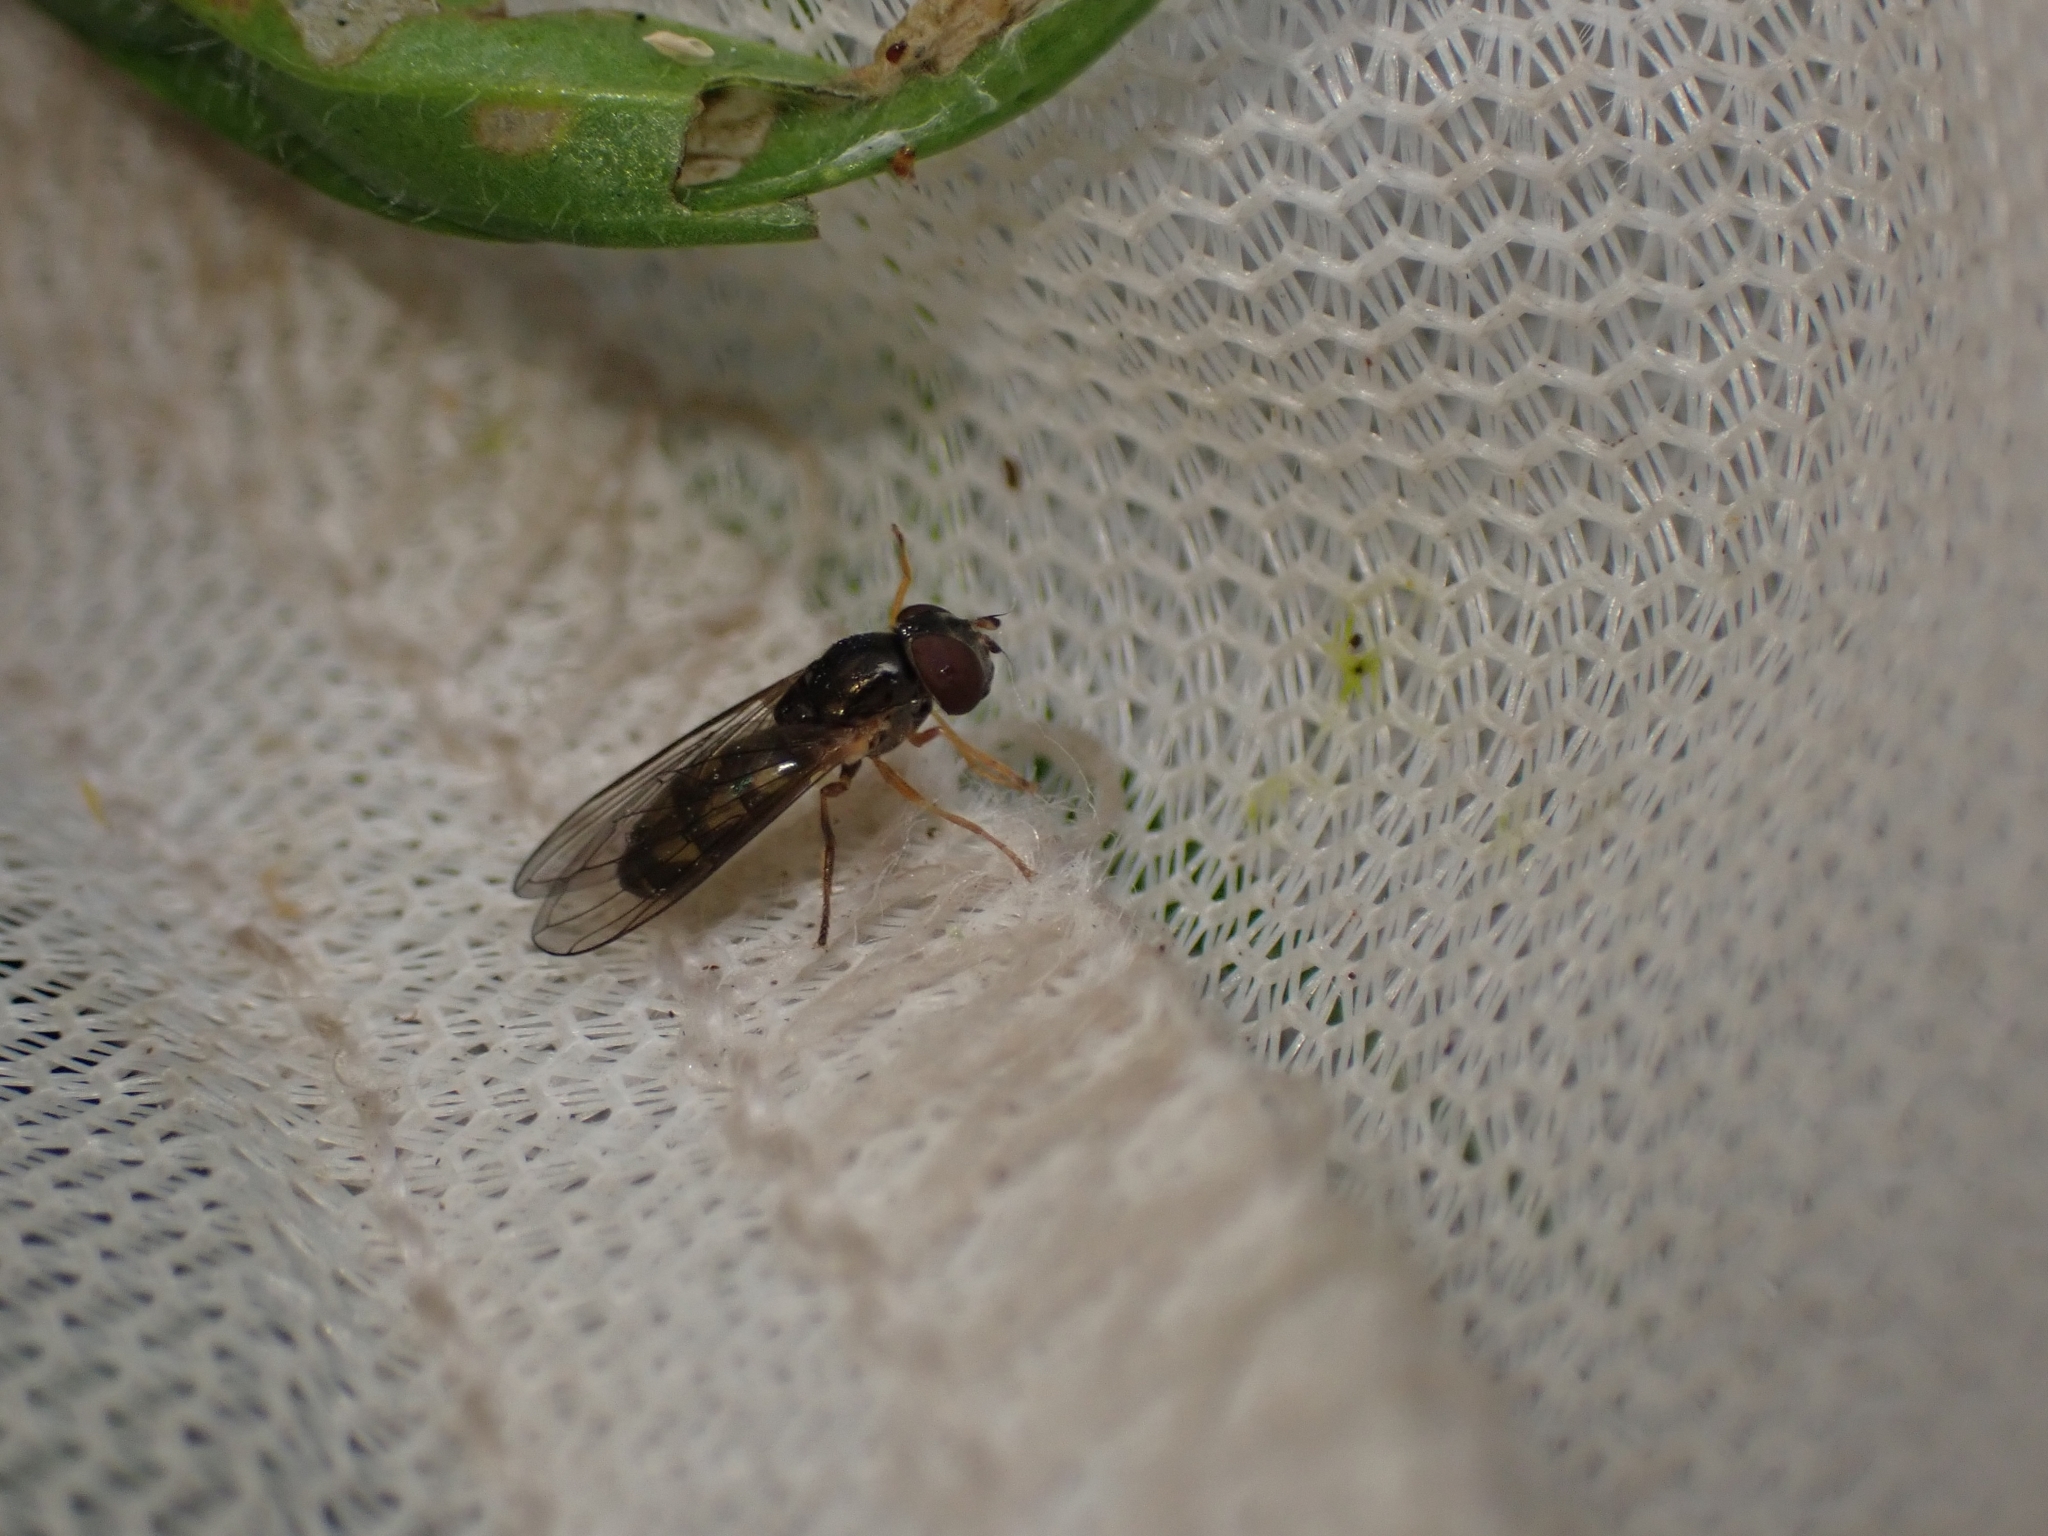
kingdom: Animalia
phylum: Arthropoda
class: Insecta
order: Diptera
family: Syrphidae
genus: Melanostoma
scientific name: Melanostoma fasciatum
